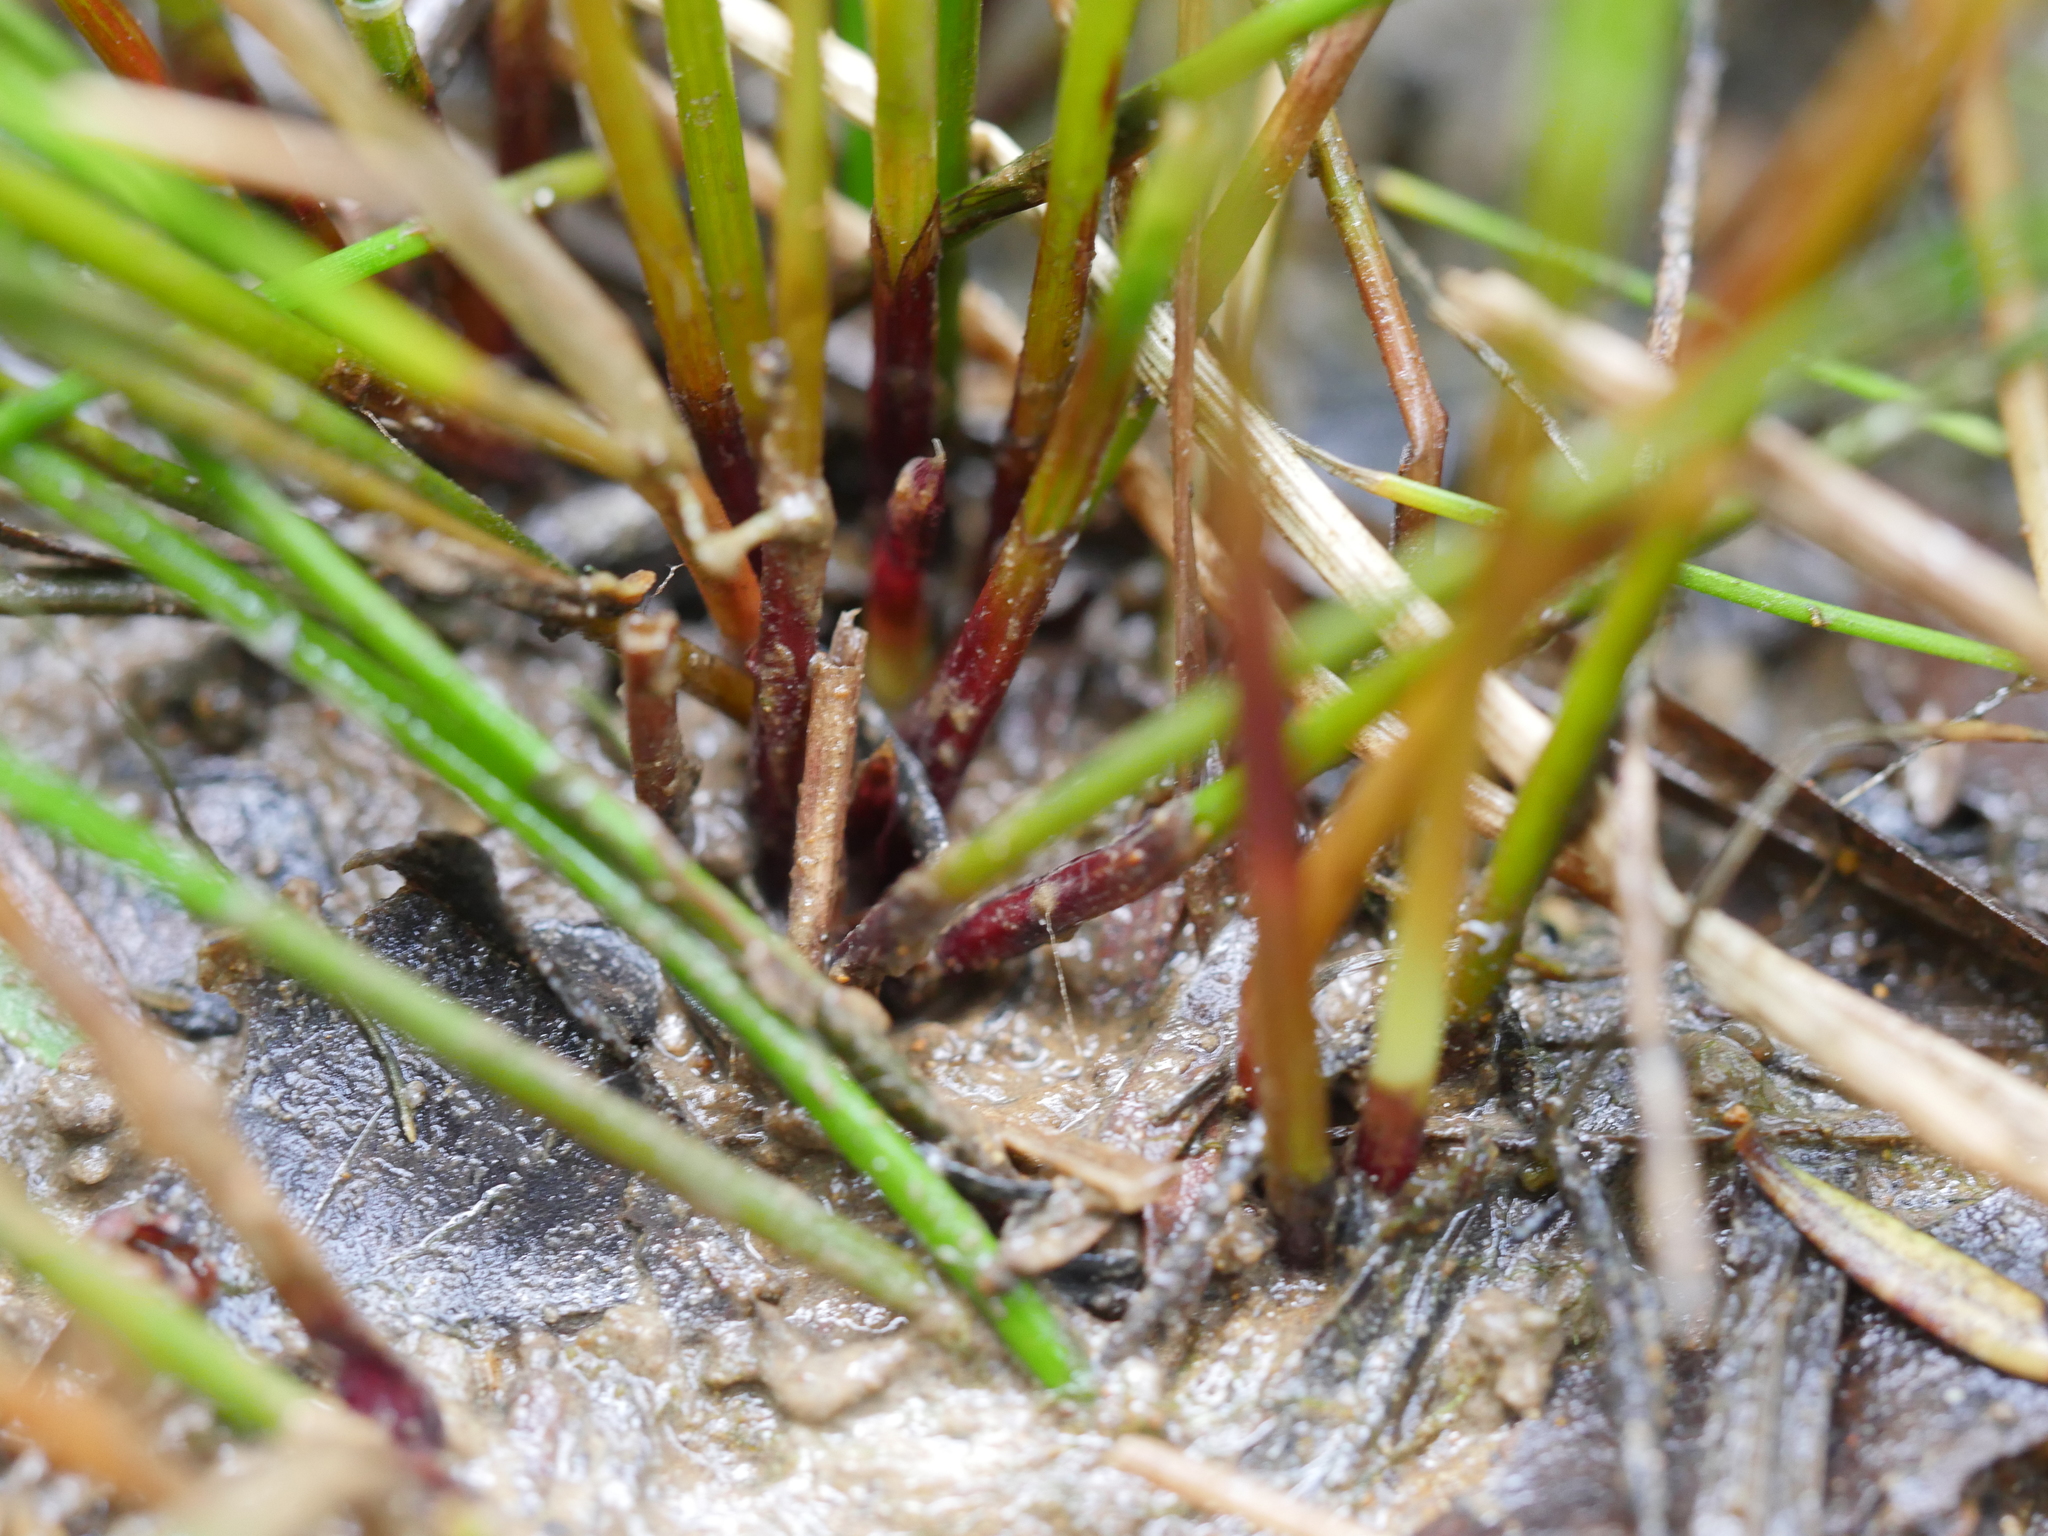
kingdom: Plantae
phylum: Tracheophyta
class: Liliopsida
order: Poales
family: Cyperaceae
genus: Eleocharis
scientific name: Eleocharis gracilis
